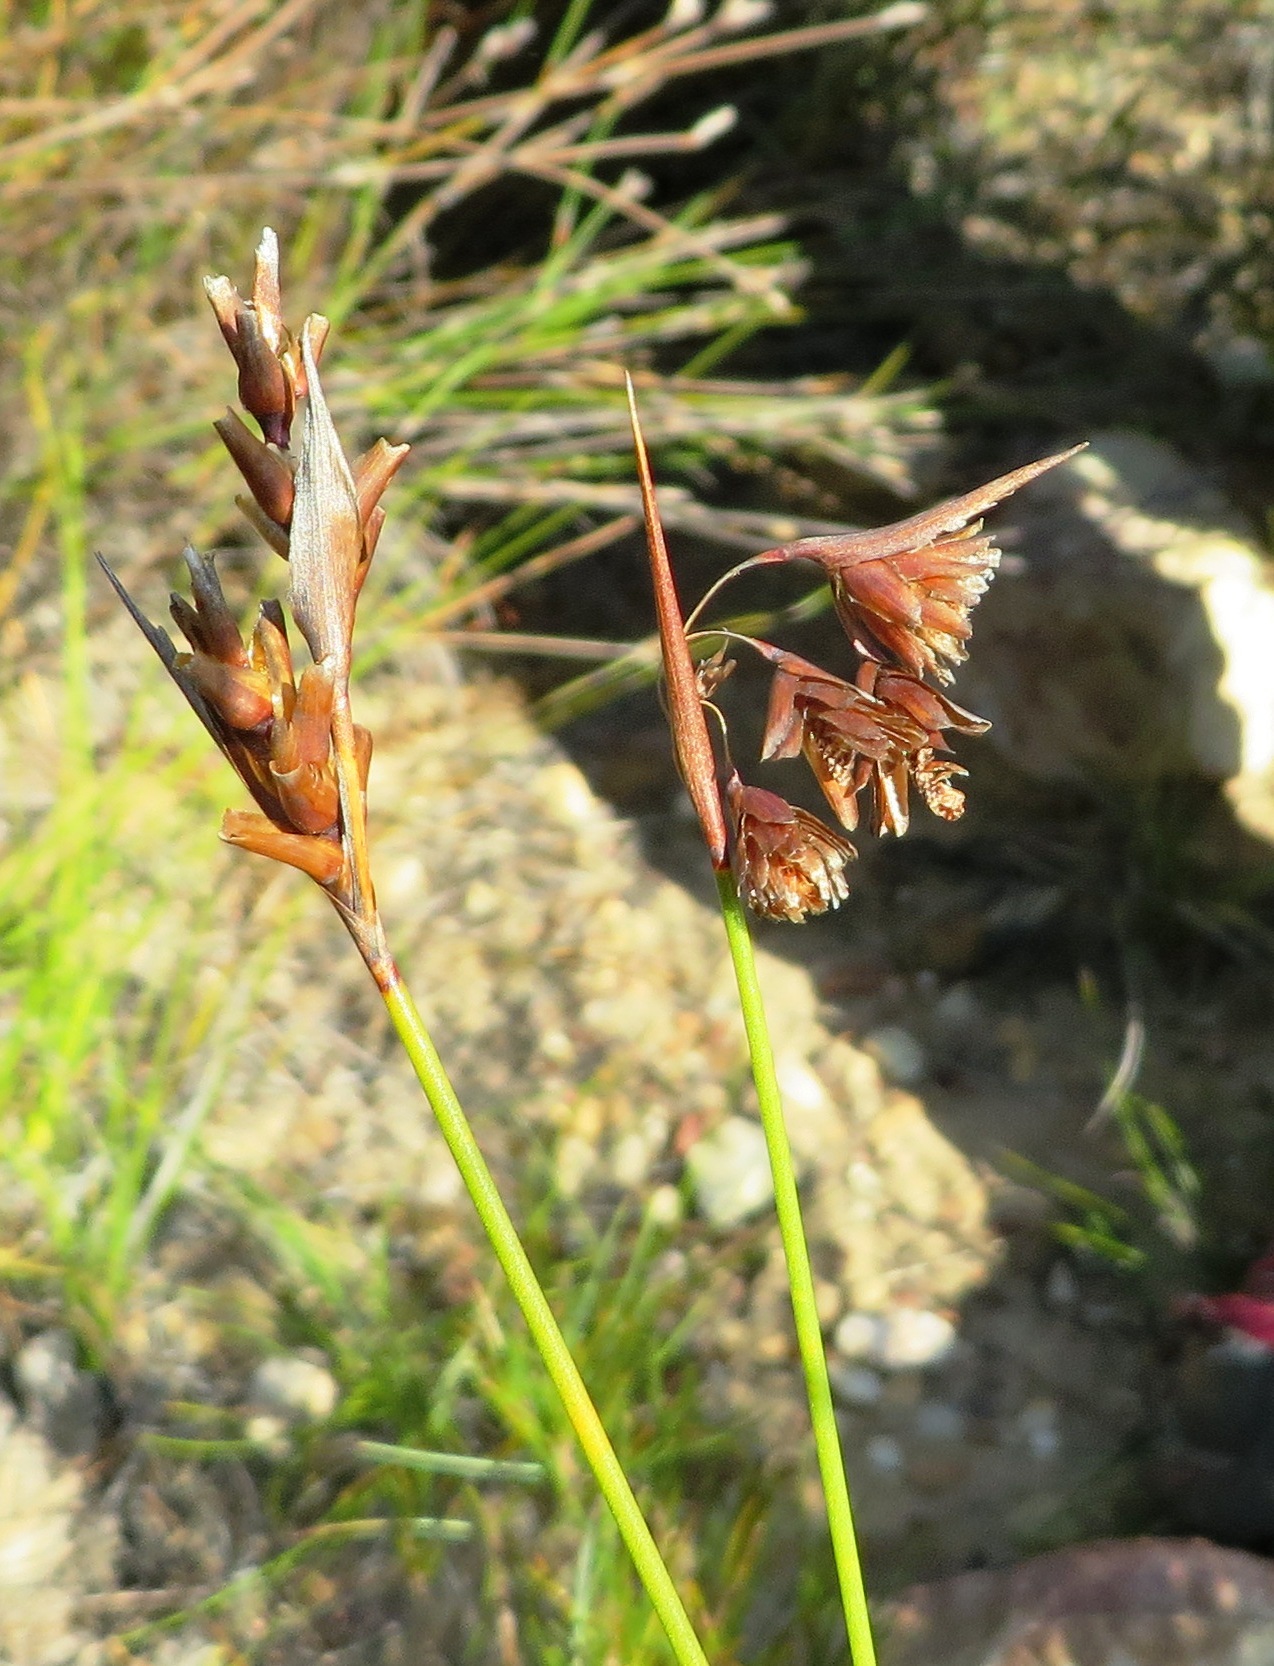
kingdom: Plantae
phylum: Tracheophyta
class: Liliopsida
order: Poales
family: Restionaceae
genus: Staberoha
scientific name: Staberoha vaginata
